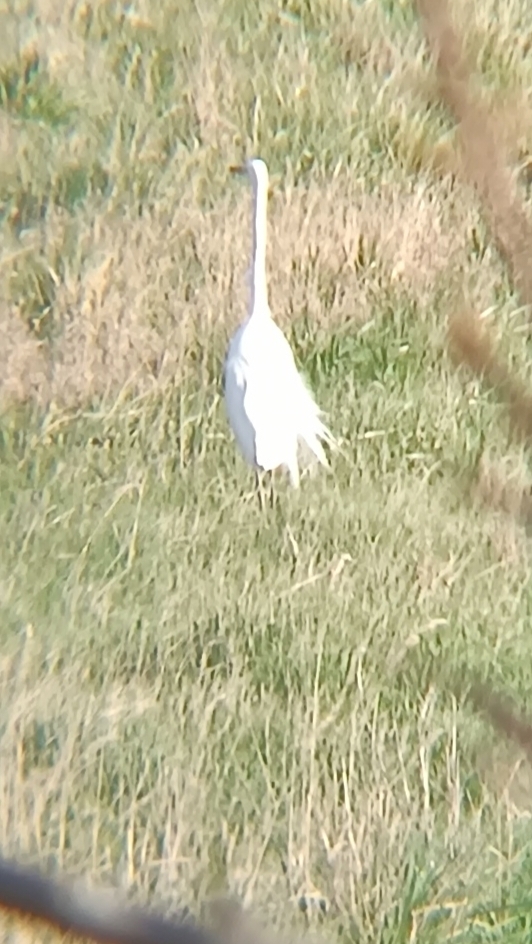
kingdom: Animalia
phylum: Chordata
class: Aves
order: Pelecaniformes
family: Ardeidae
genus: Ardea
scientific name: Ardea alba
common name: Great egret
